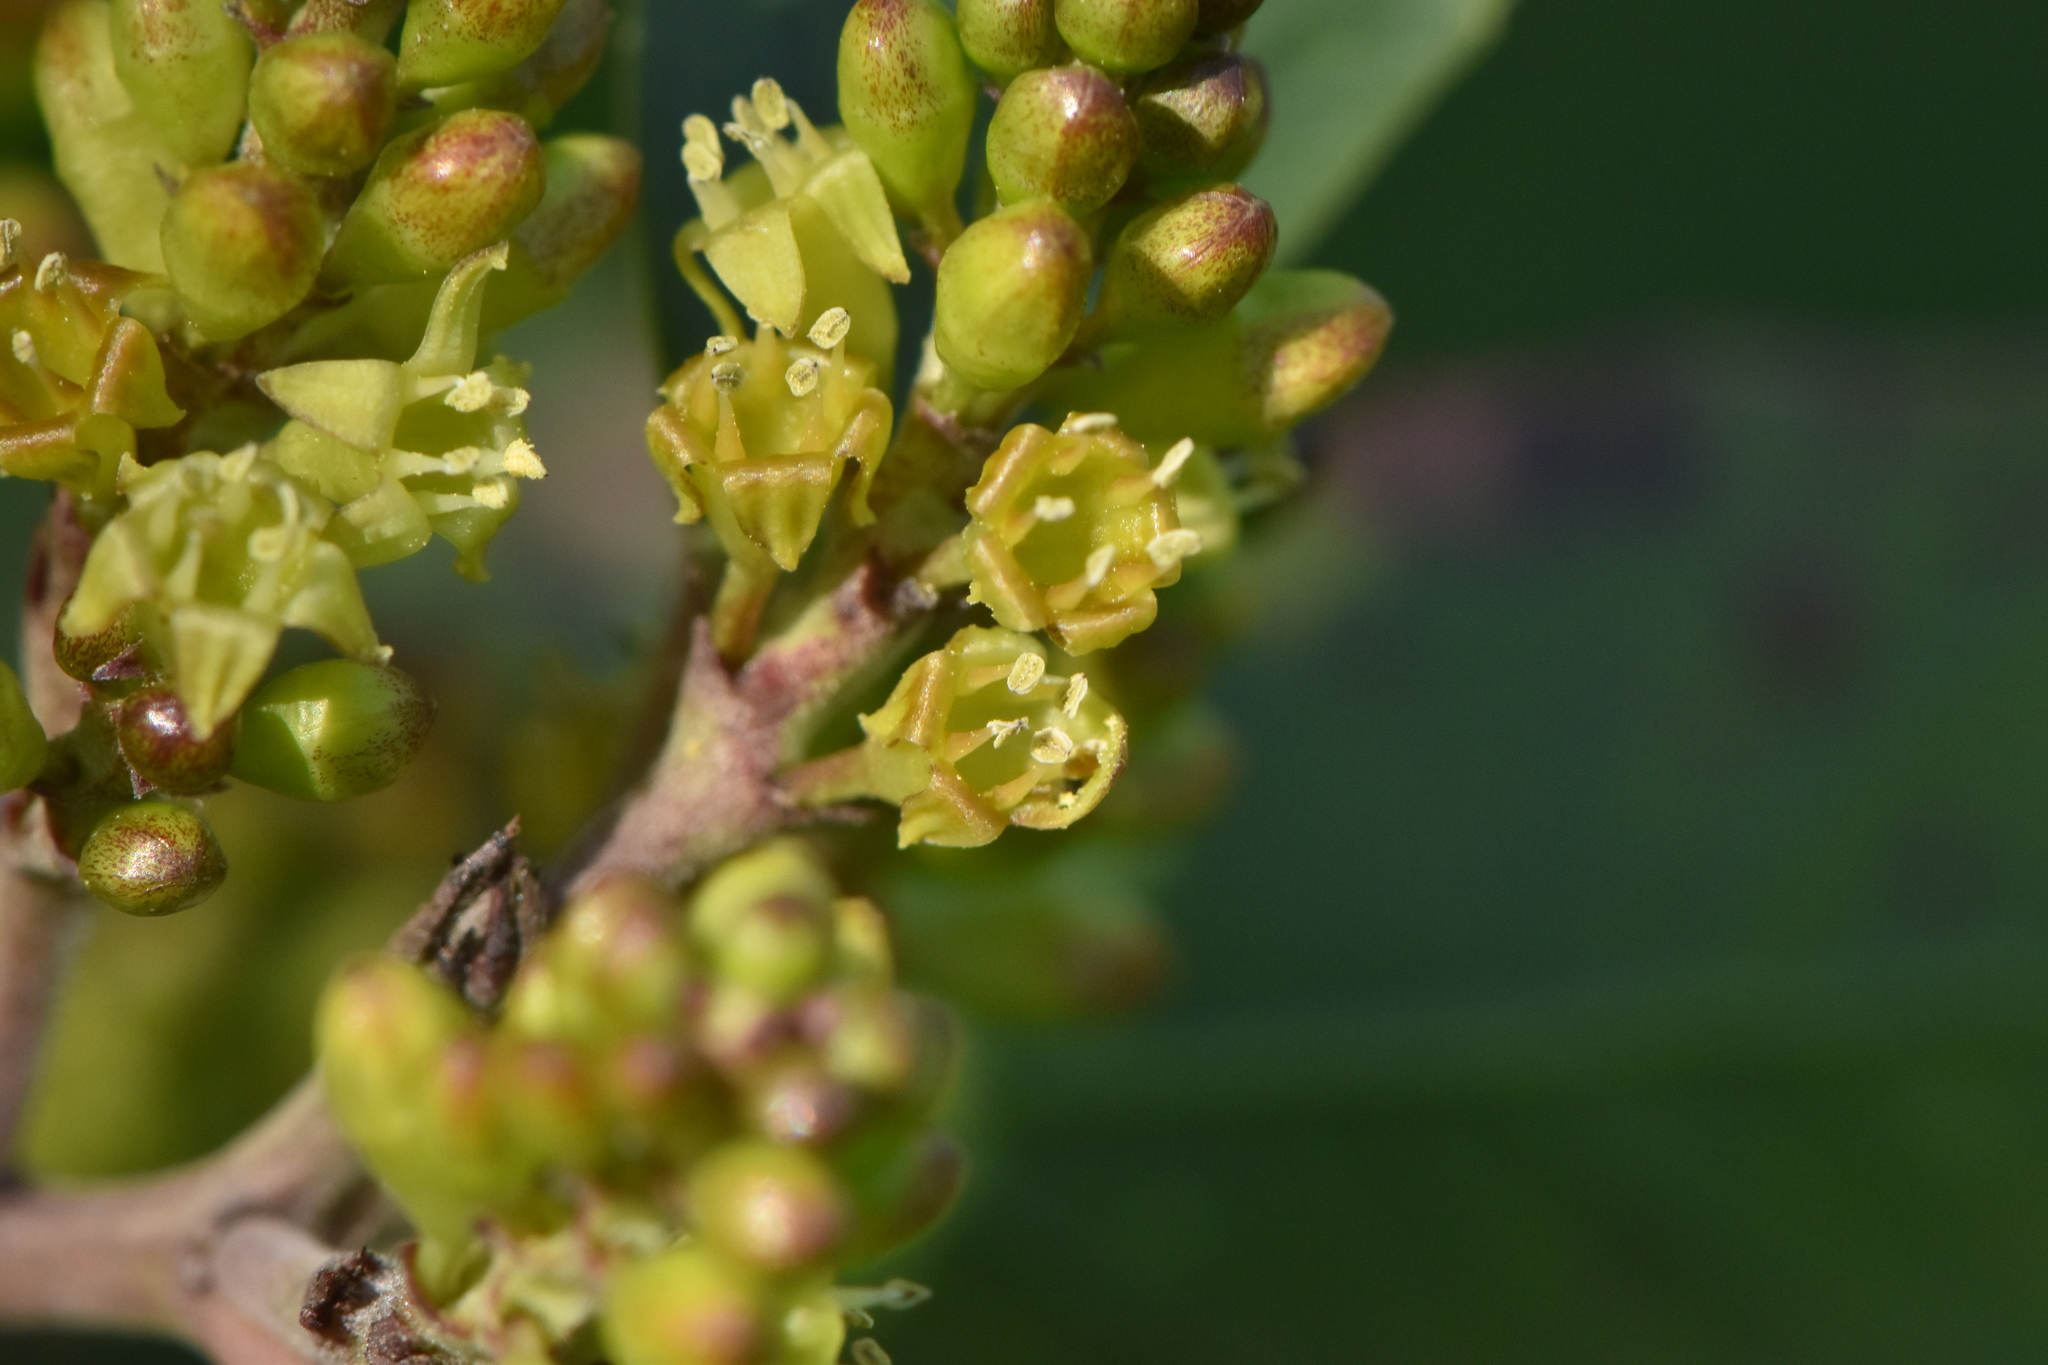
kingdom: Plantae
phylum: Tracheophyta
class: Magnoliopsida
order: Rosales
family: Rhamnaceae
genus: Rhamnus
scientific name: Rhamnus alaternus
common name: Mediterranean buckthorn
